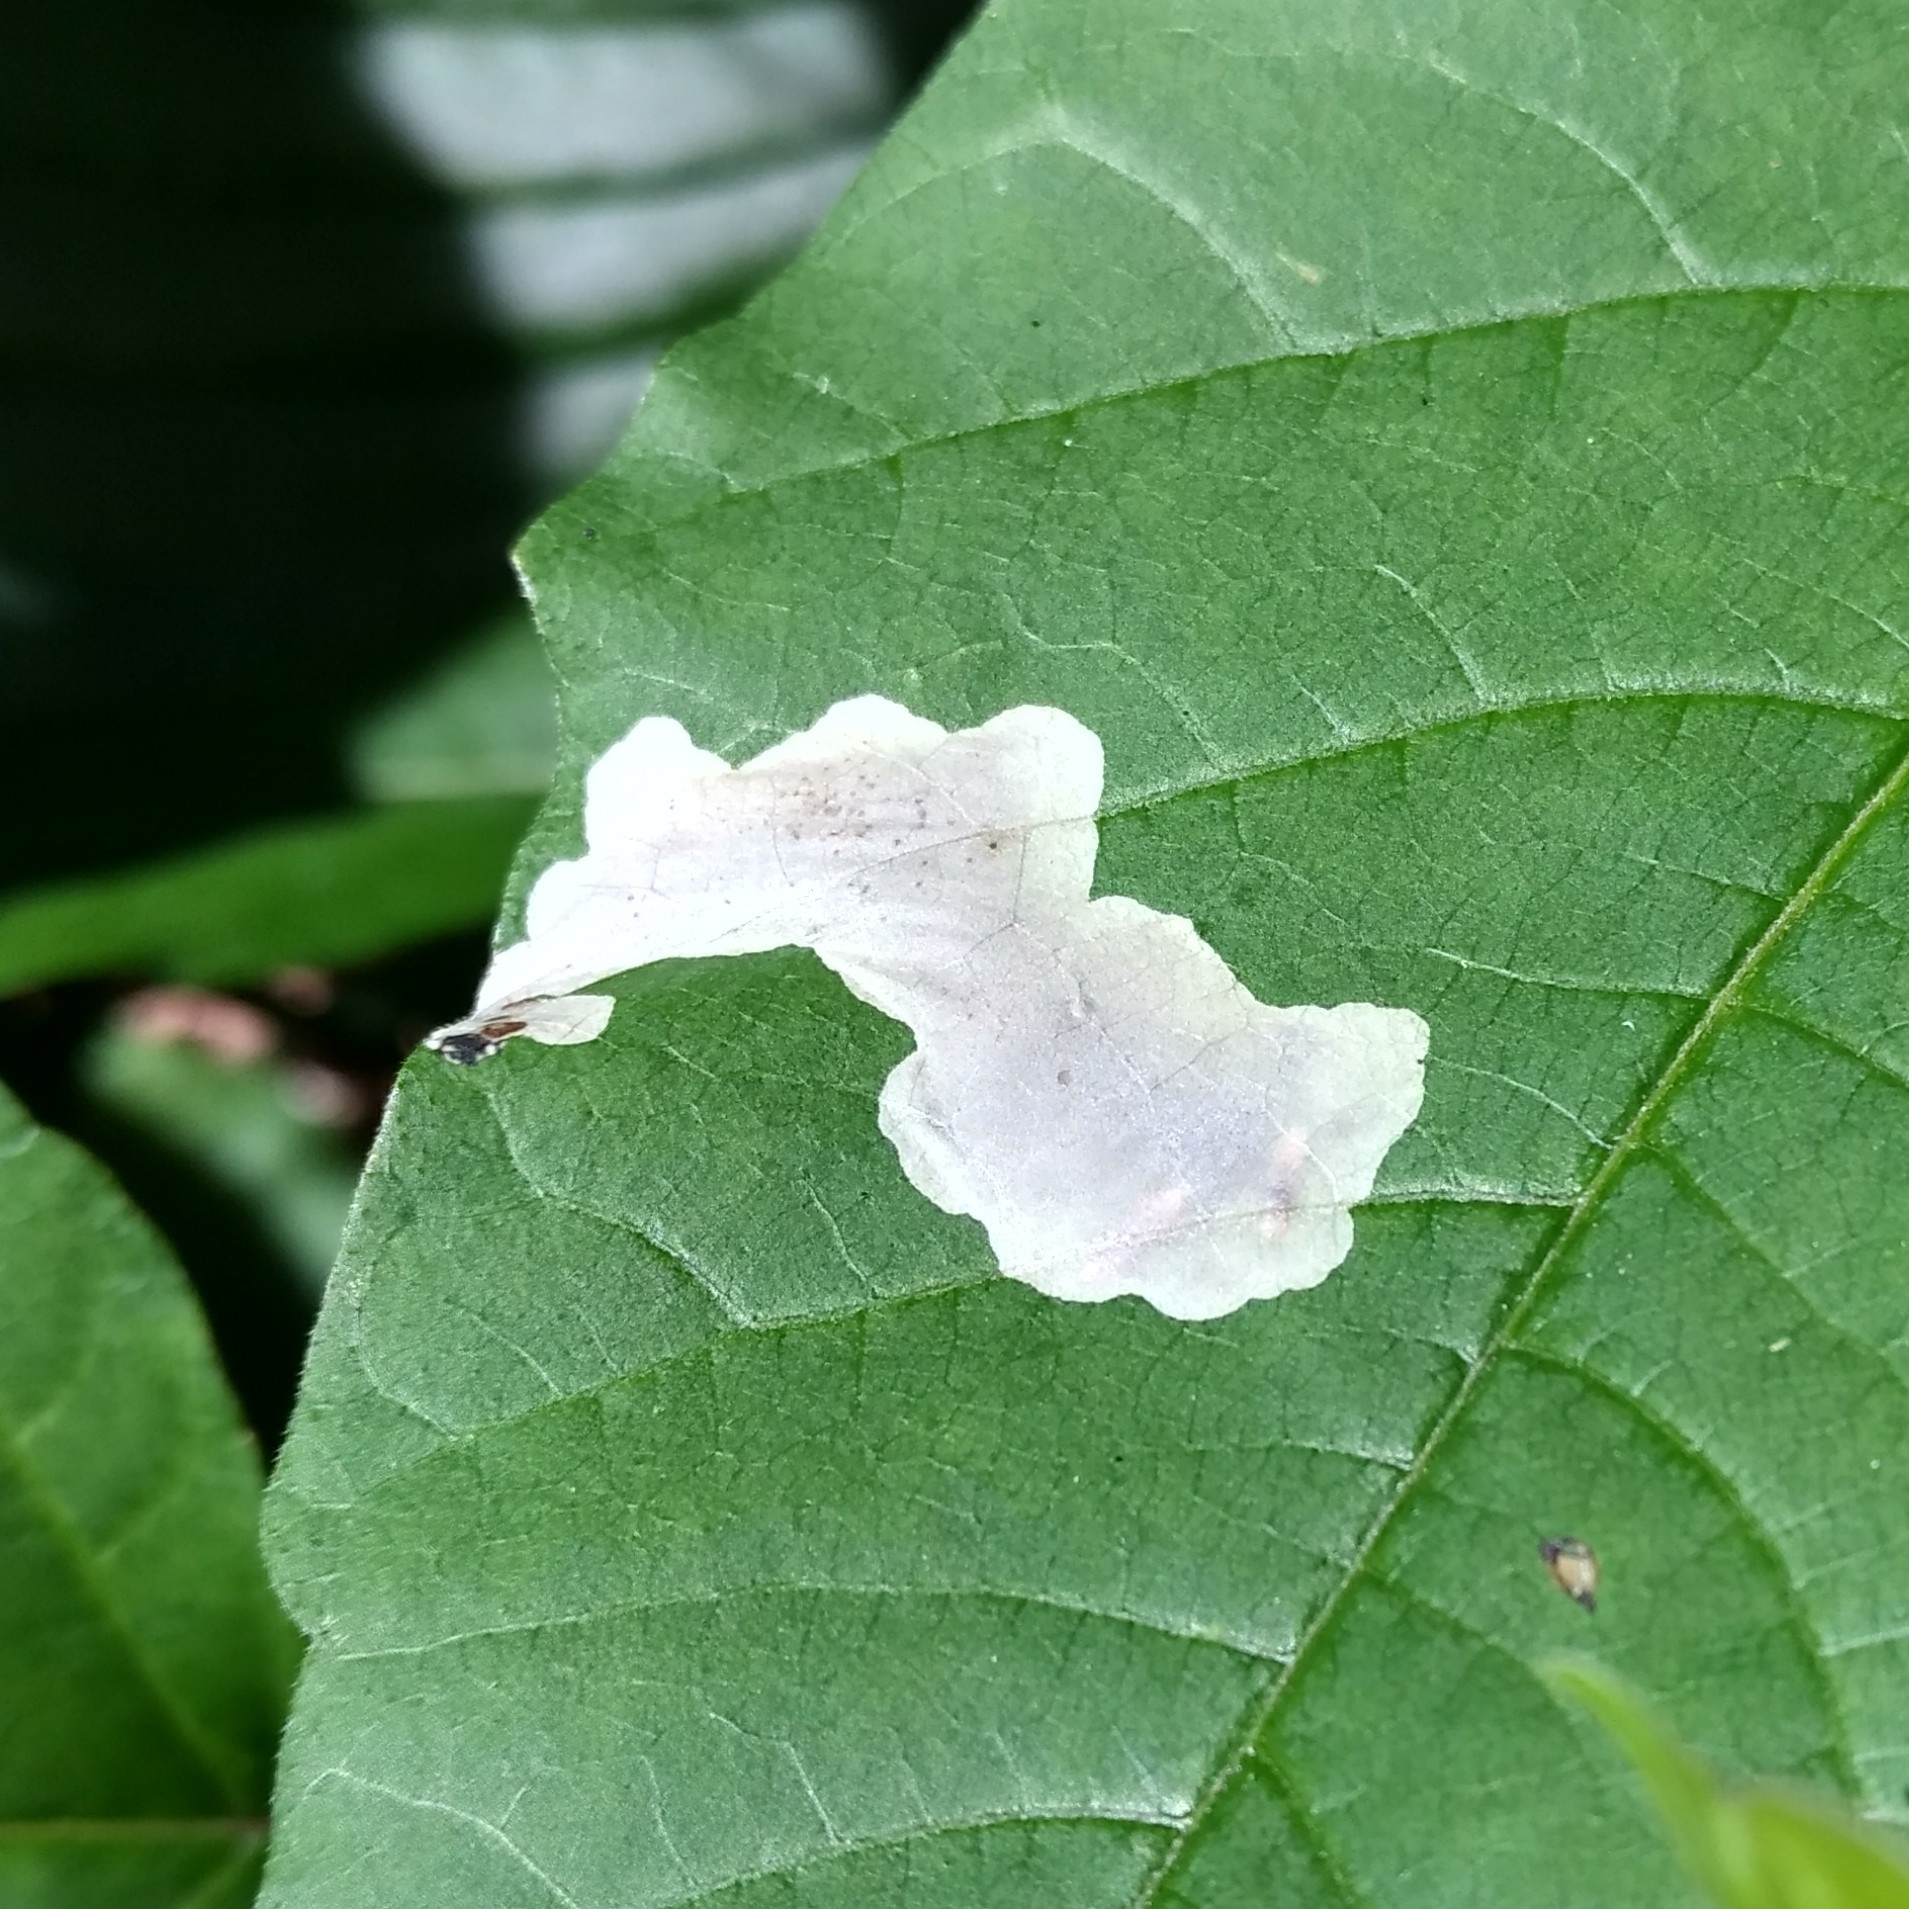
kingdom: Animalia
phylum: Arthropoda
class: Insecta
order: Lepidoptera
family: Gracillariidae
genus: Cameraria
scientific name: Cameraria guttifinitella
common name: Poison ivy leaf-miner moth
